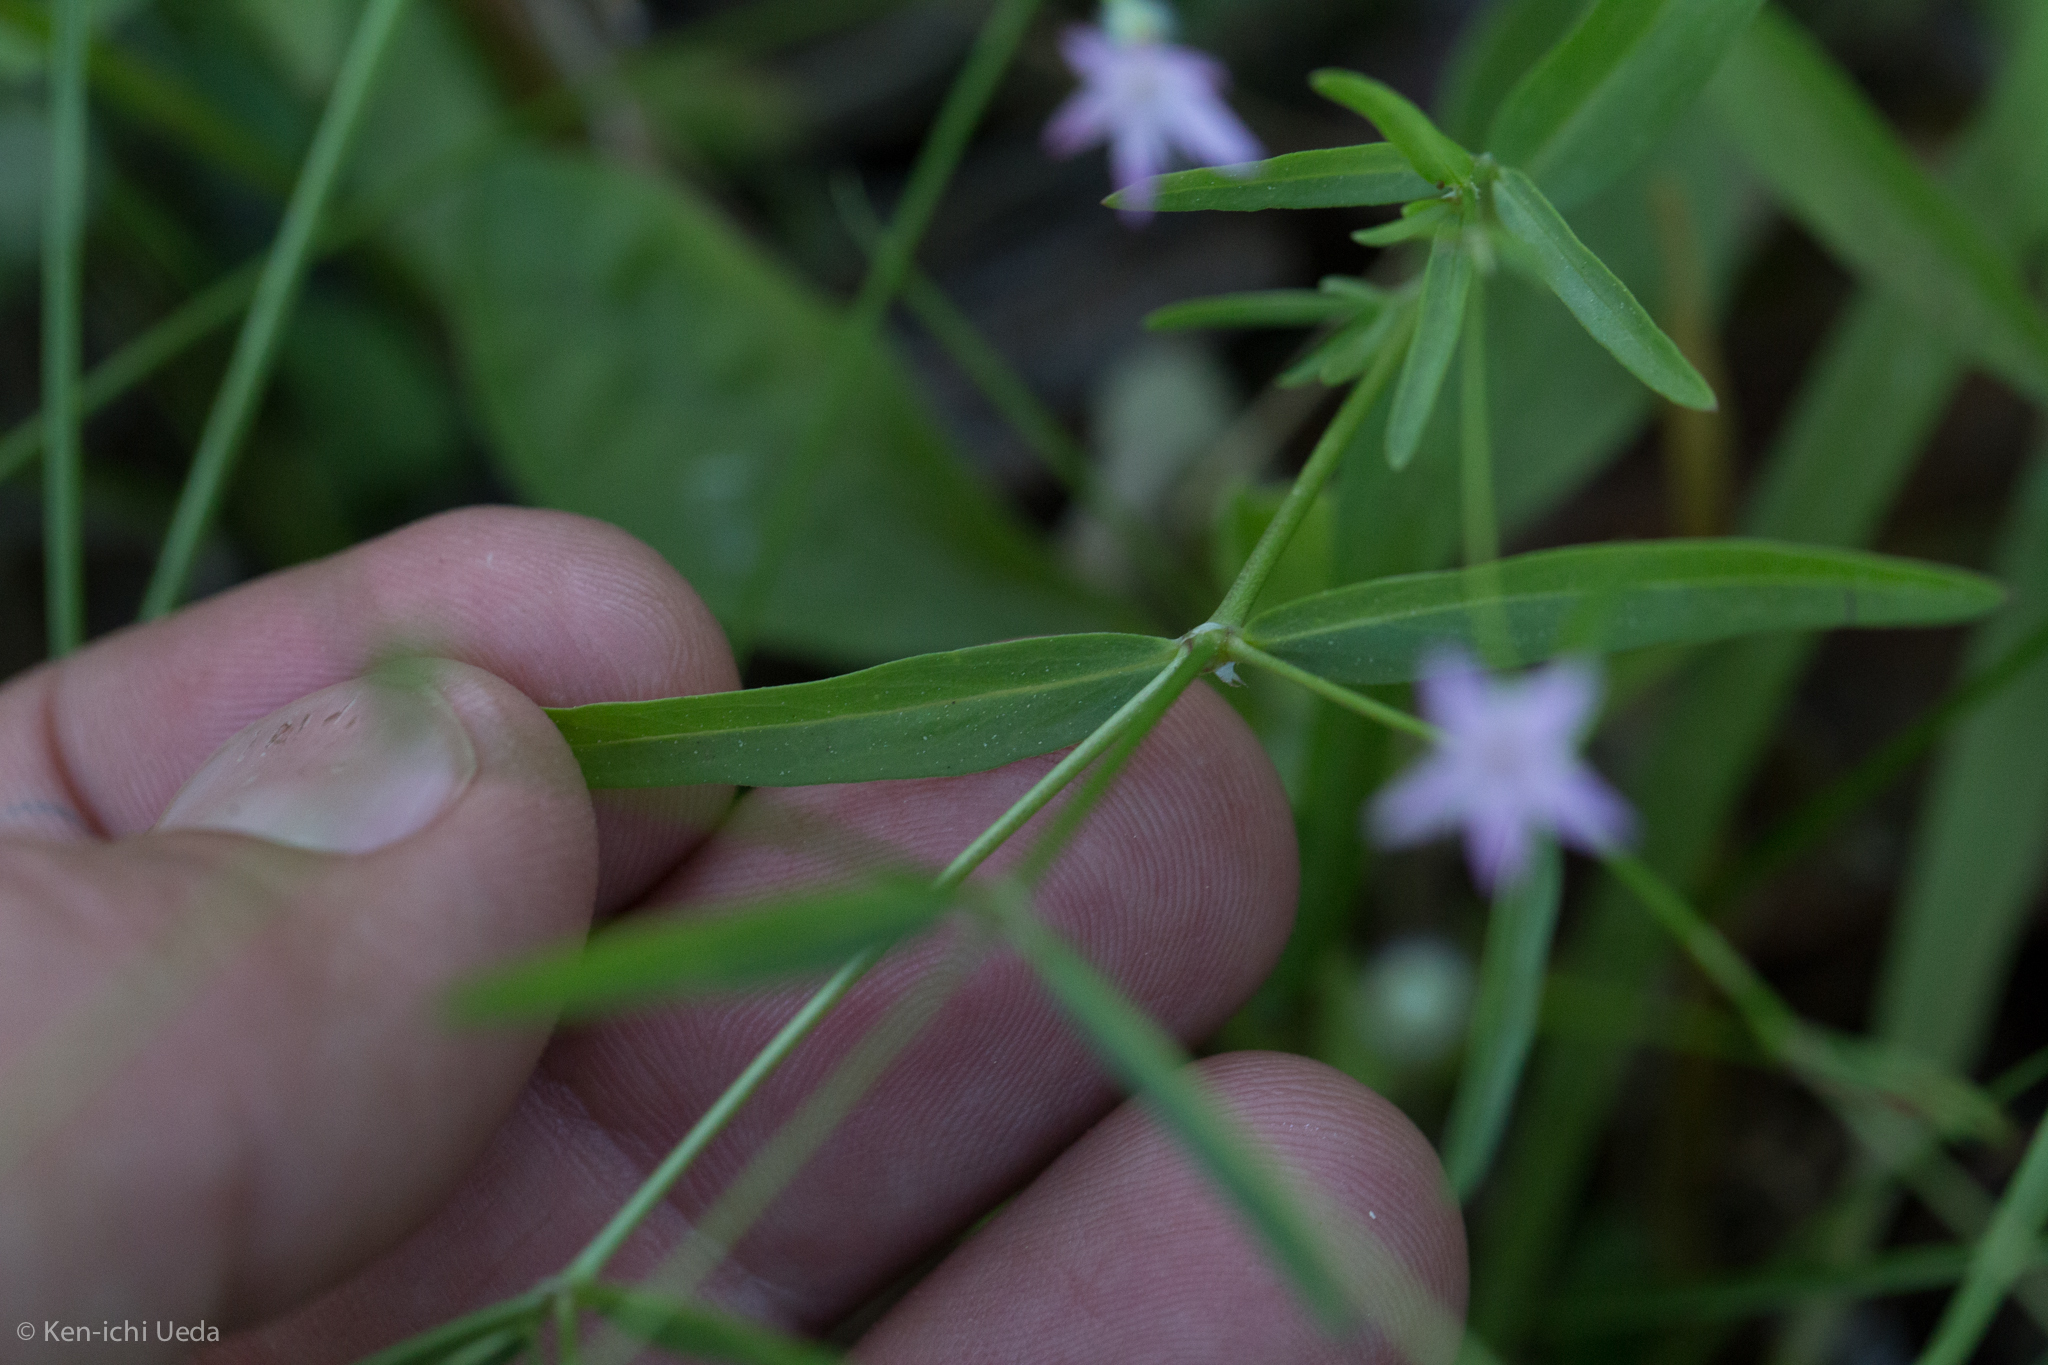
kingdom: Plantae
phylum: Tracheophyta
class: Magnoliopsida
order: Gentianales
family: Rubiaceae
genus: Kelloggia
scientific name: Kelloggia galioides
